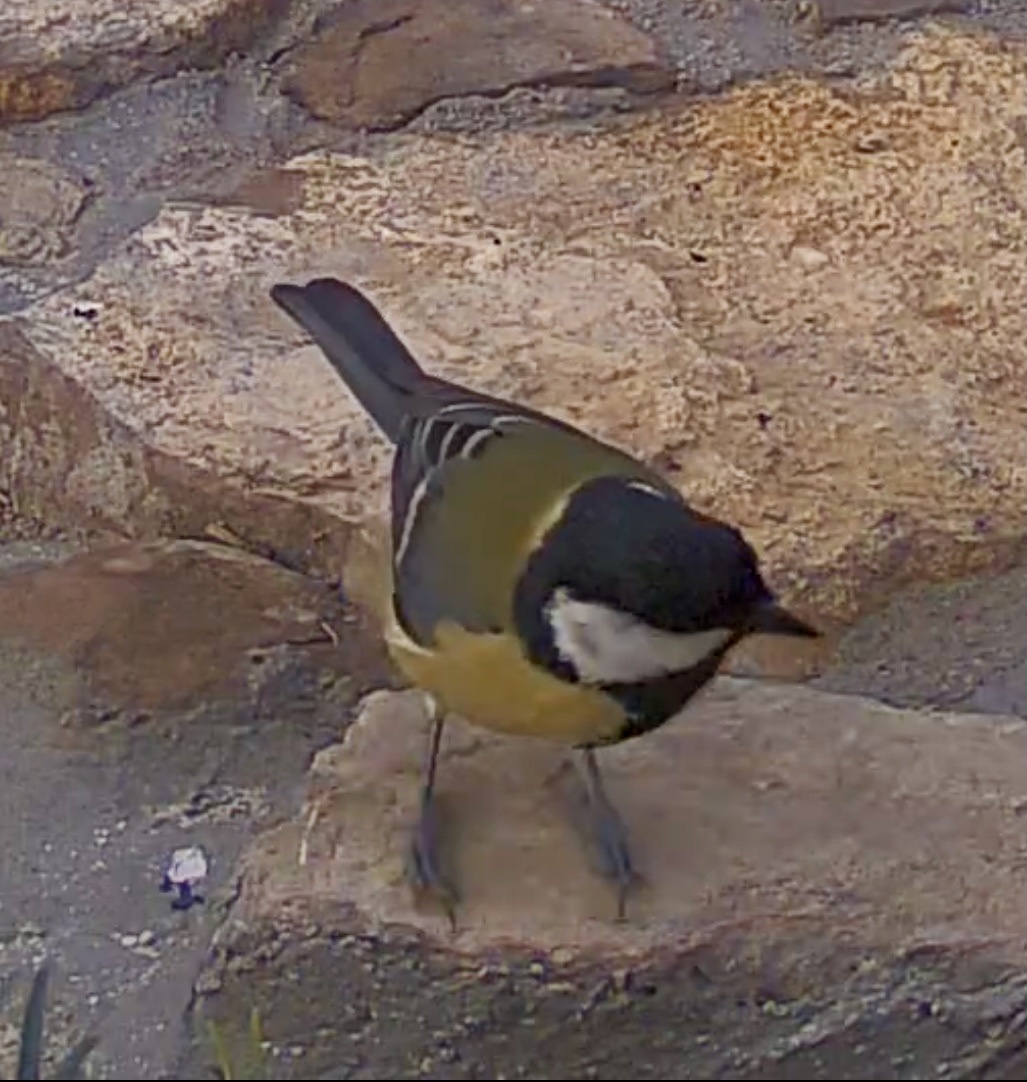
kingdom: Animalia
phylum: Chordata
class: Aves
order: Passeriformes
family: Paridae
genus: Parus
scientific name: Parus major
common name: Great tit
